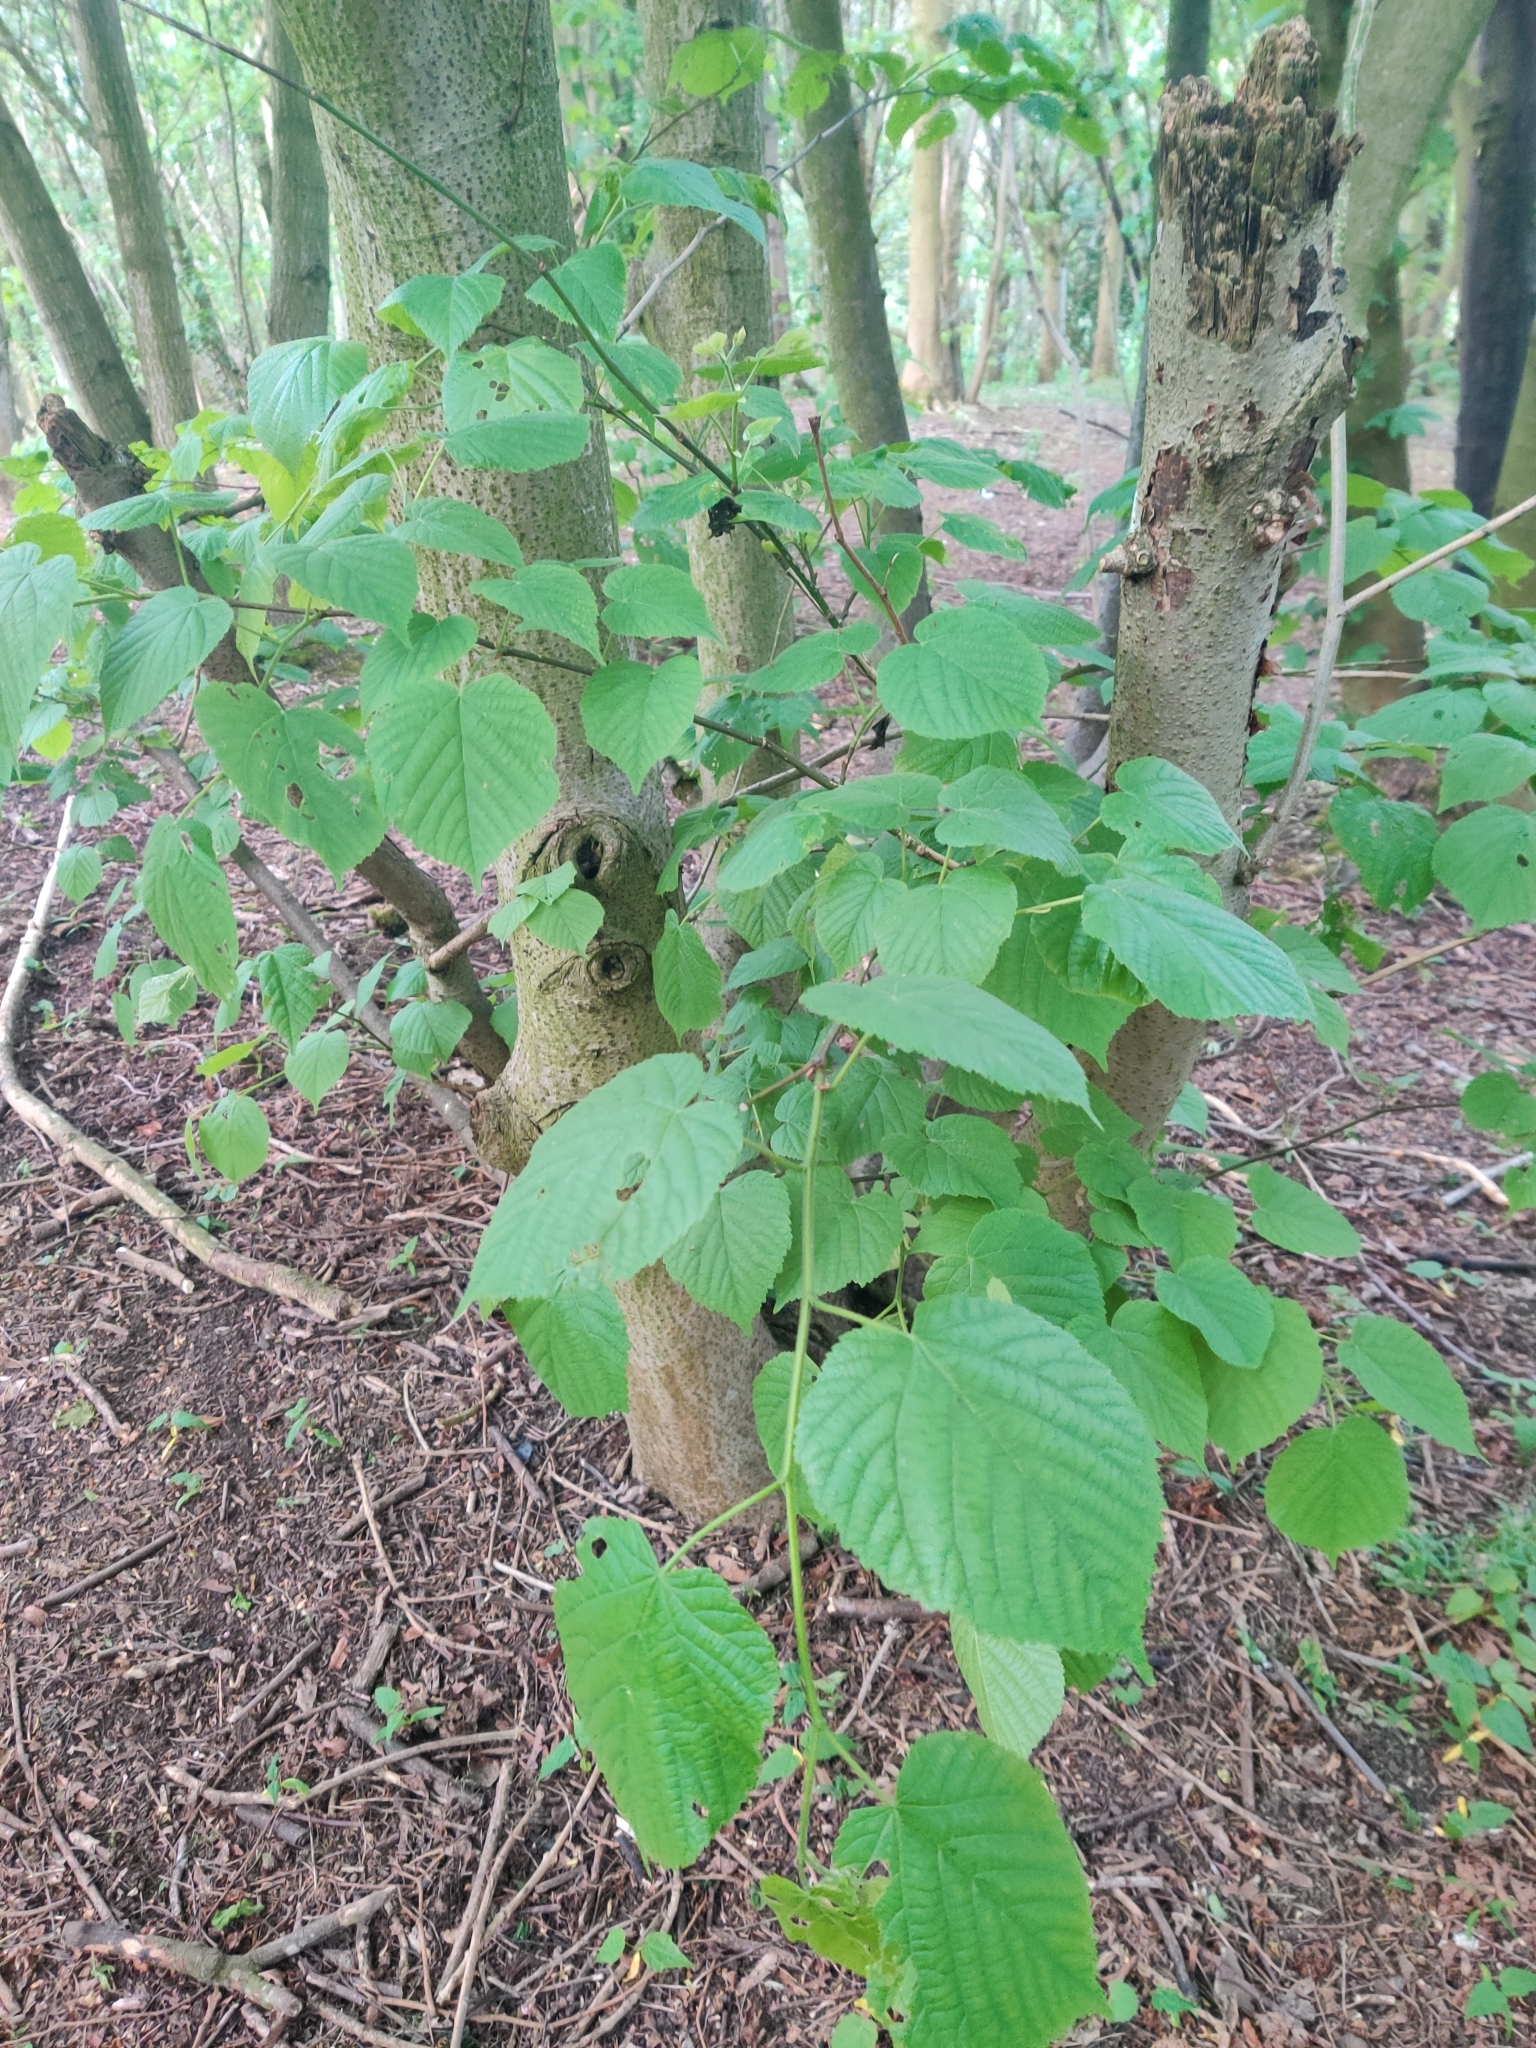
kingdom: Plantae
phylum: Tracheophyta
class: Magnoliopsida
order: Malvales
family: Malvaceae
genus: Tilia
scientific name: Tilia cordata
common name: Small-leaved lime
